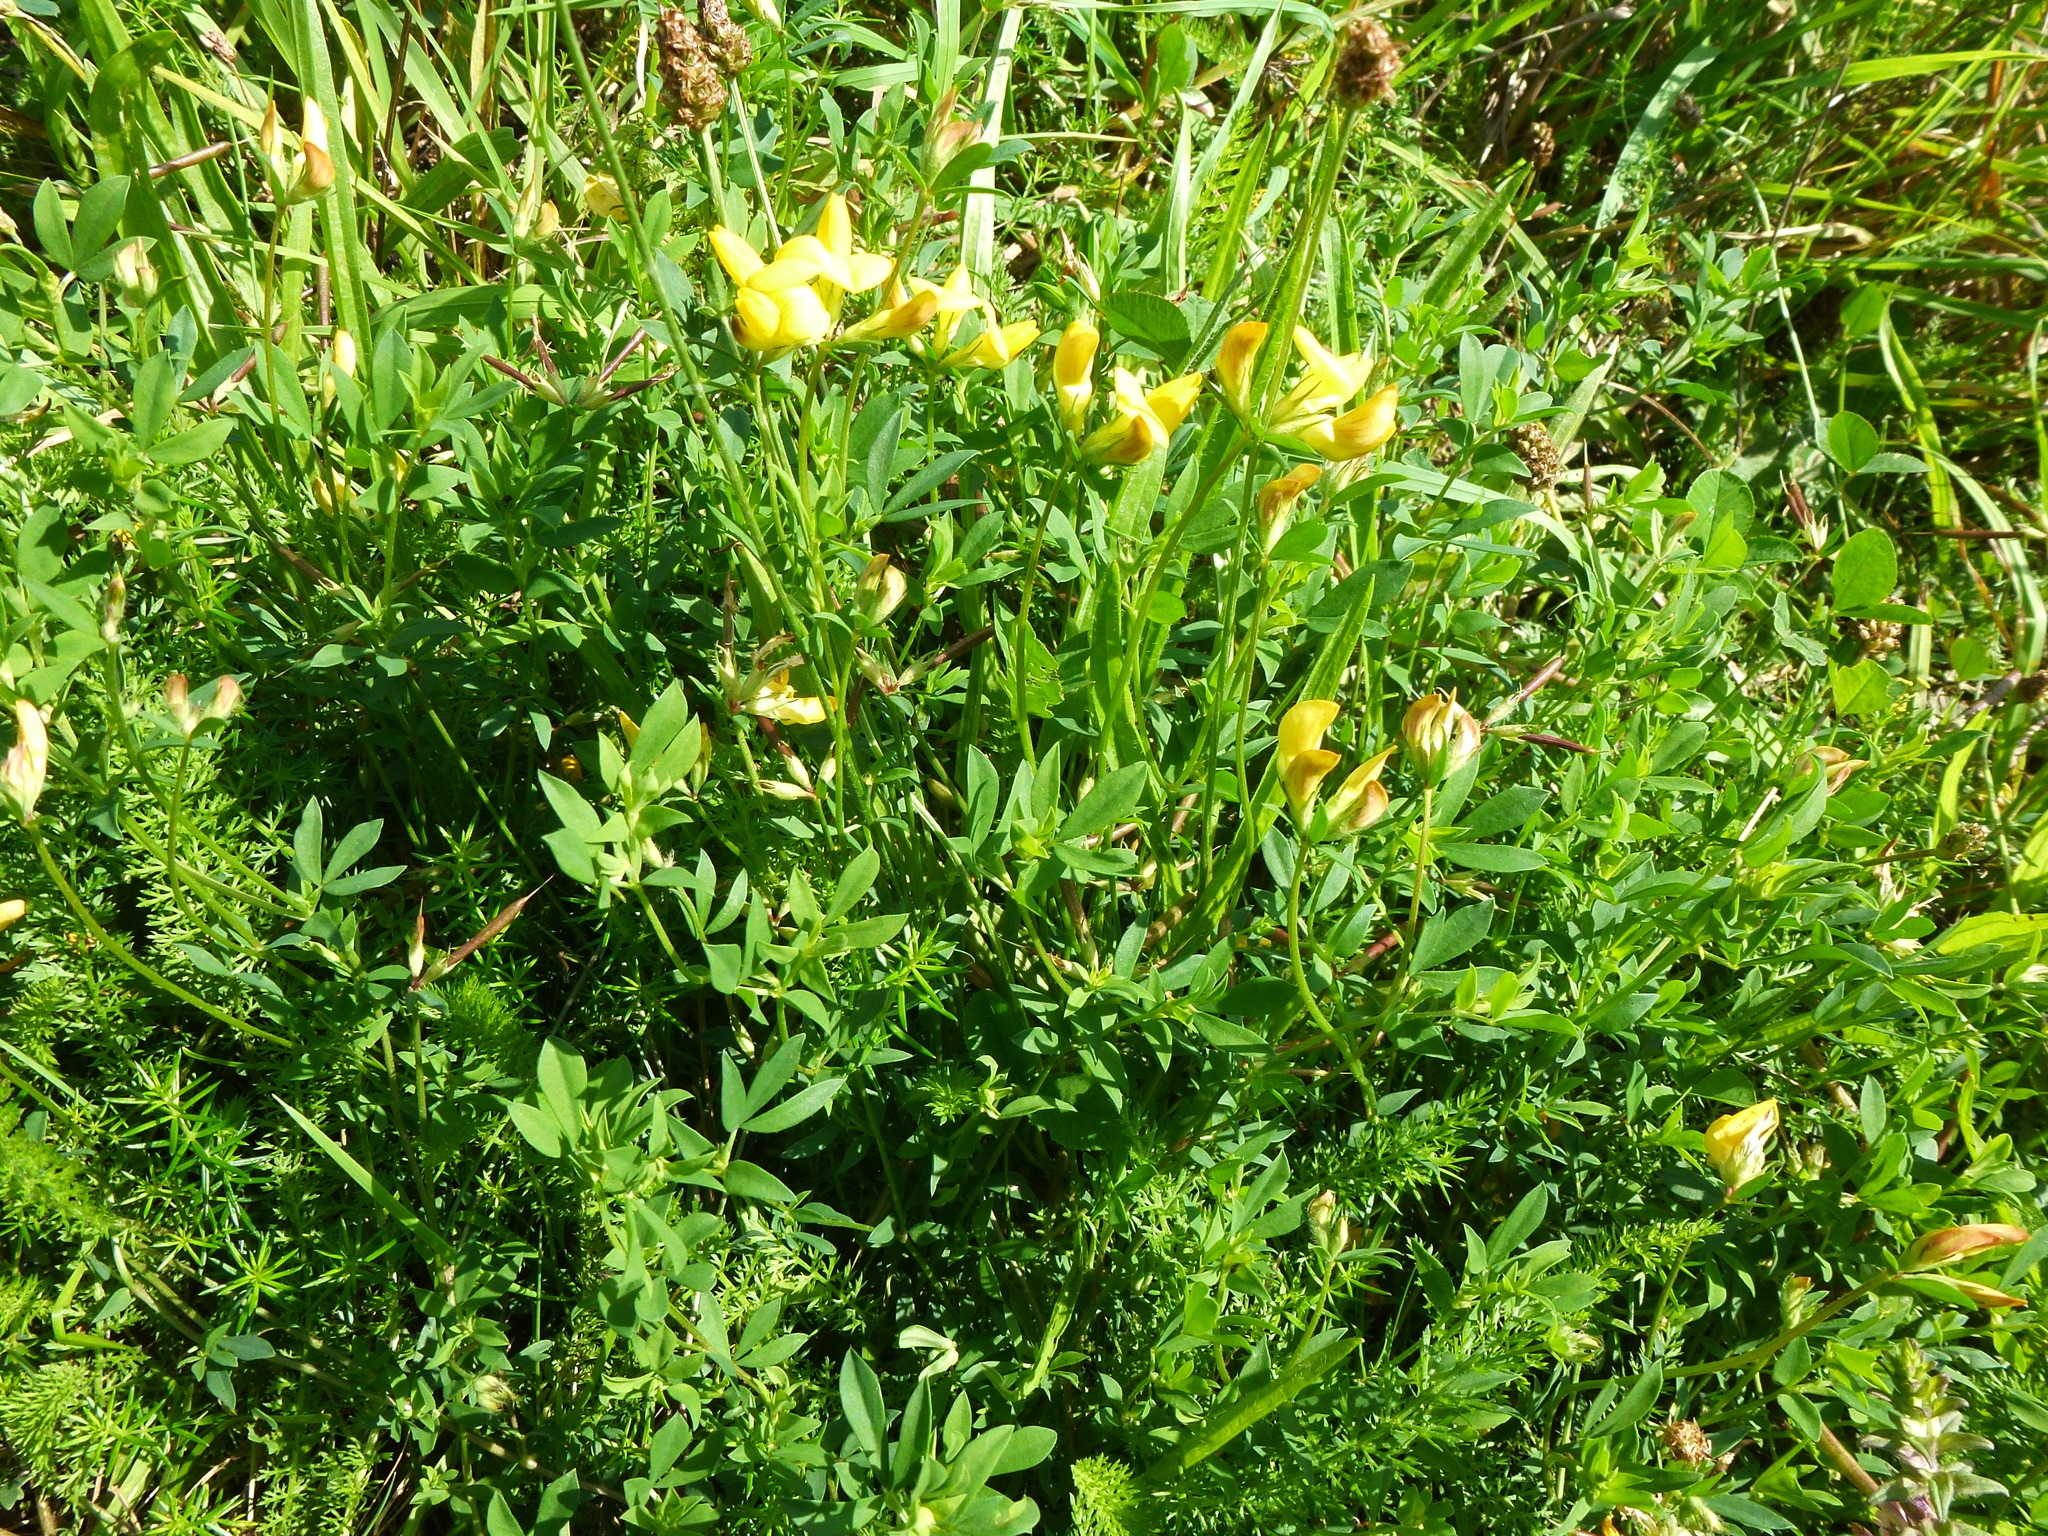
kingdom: Plantae
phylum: Tracheophyta
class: Magnoliopsida
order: Fabales
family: Fabaceae
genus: Lotus
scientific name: Lotus corniculatus
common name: Common bird's-foot-trefoil
